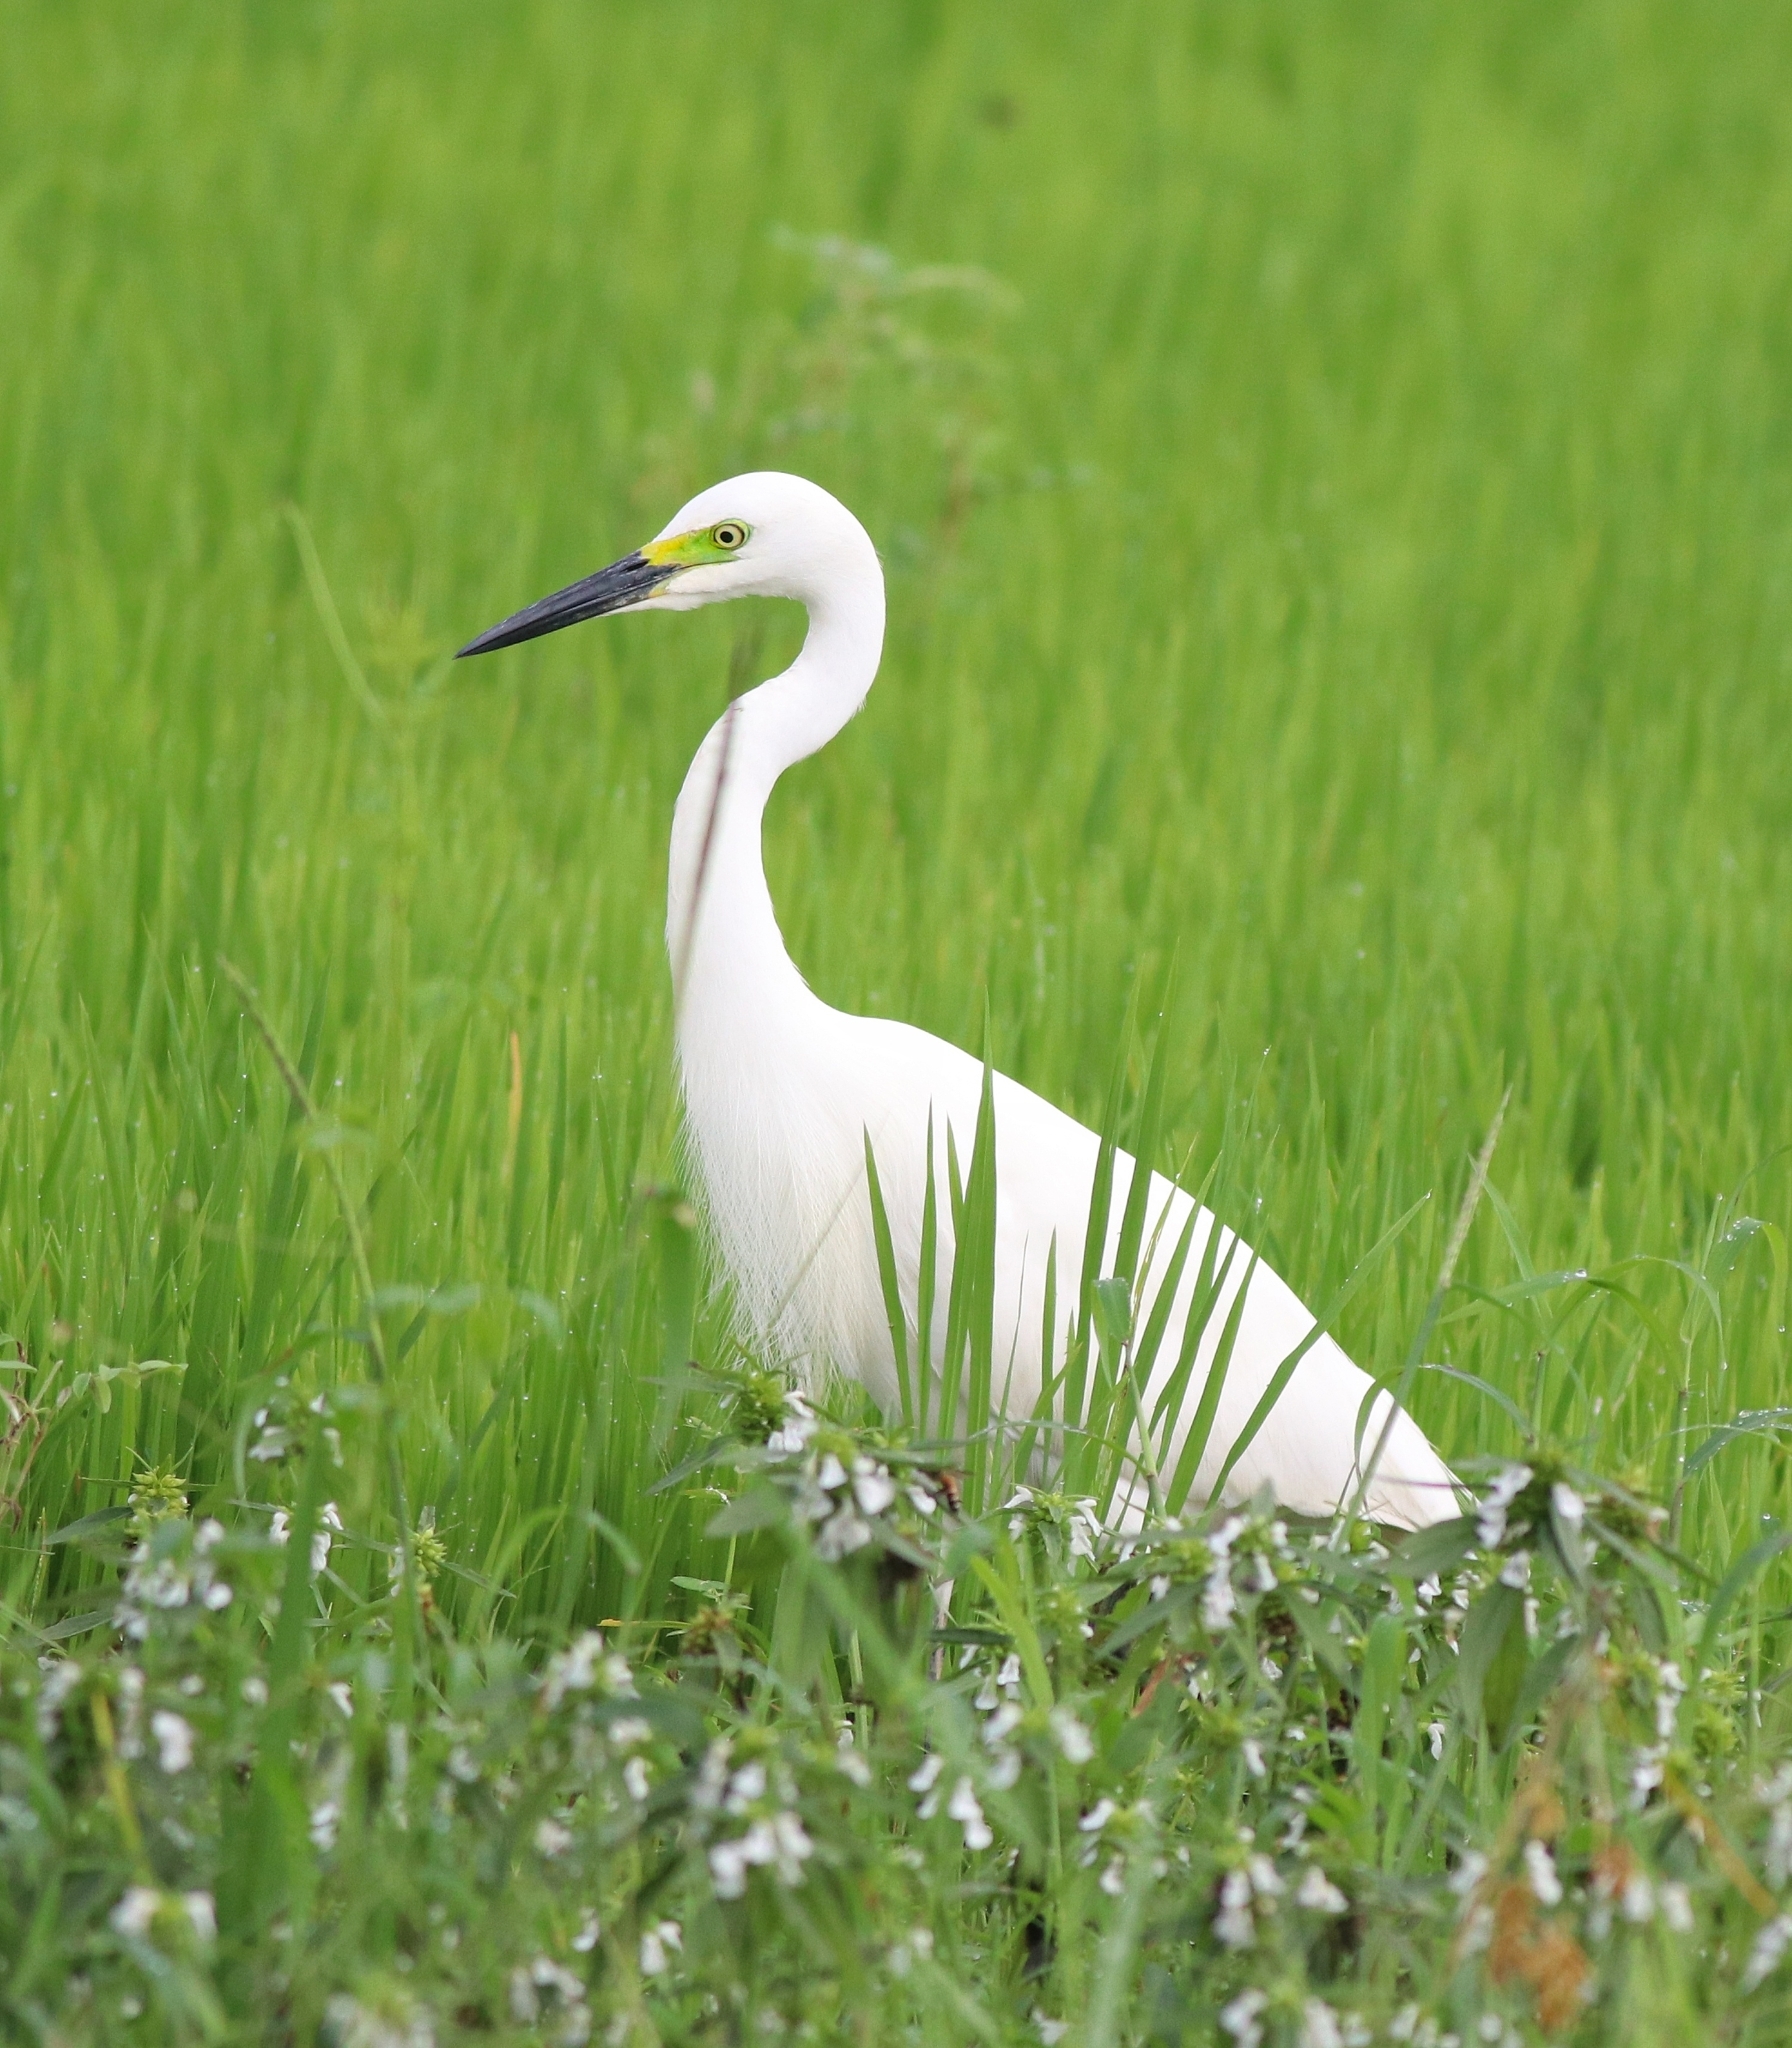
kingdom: Animalia
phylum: Chordata
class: Aves
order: Pelecaniformes
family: Ardeidae
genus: Egretta
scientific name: Egretta intermedia
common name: Intermediate egret
